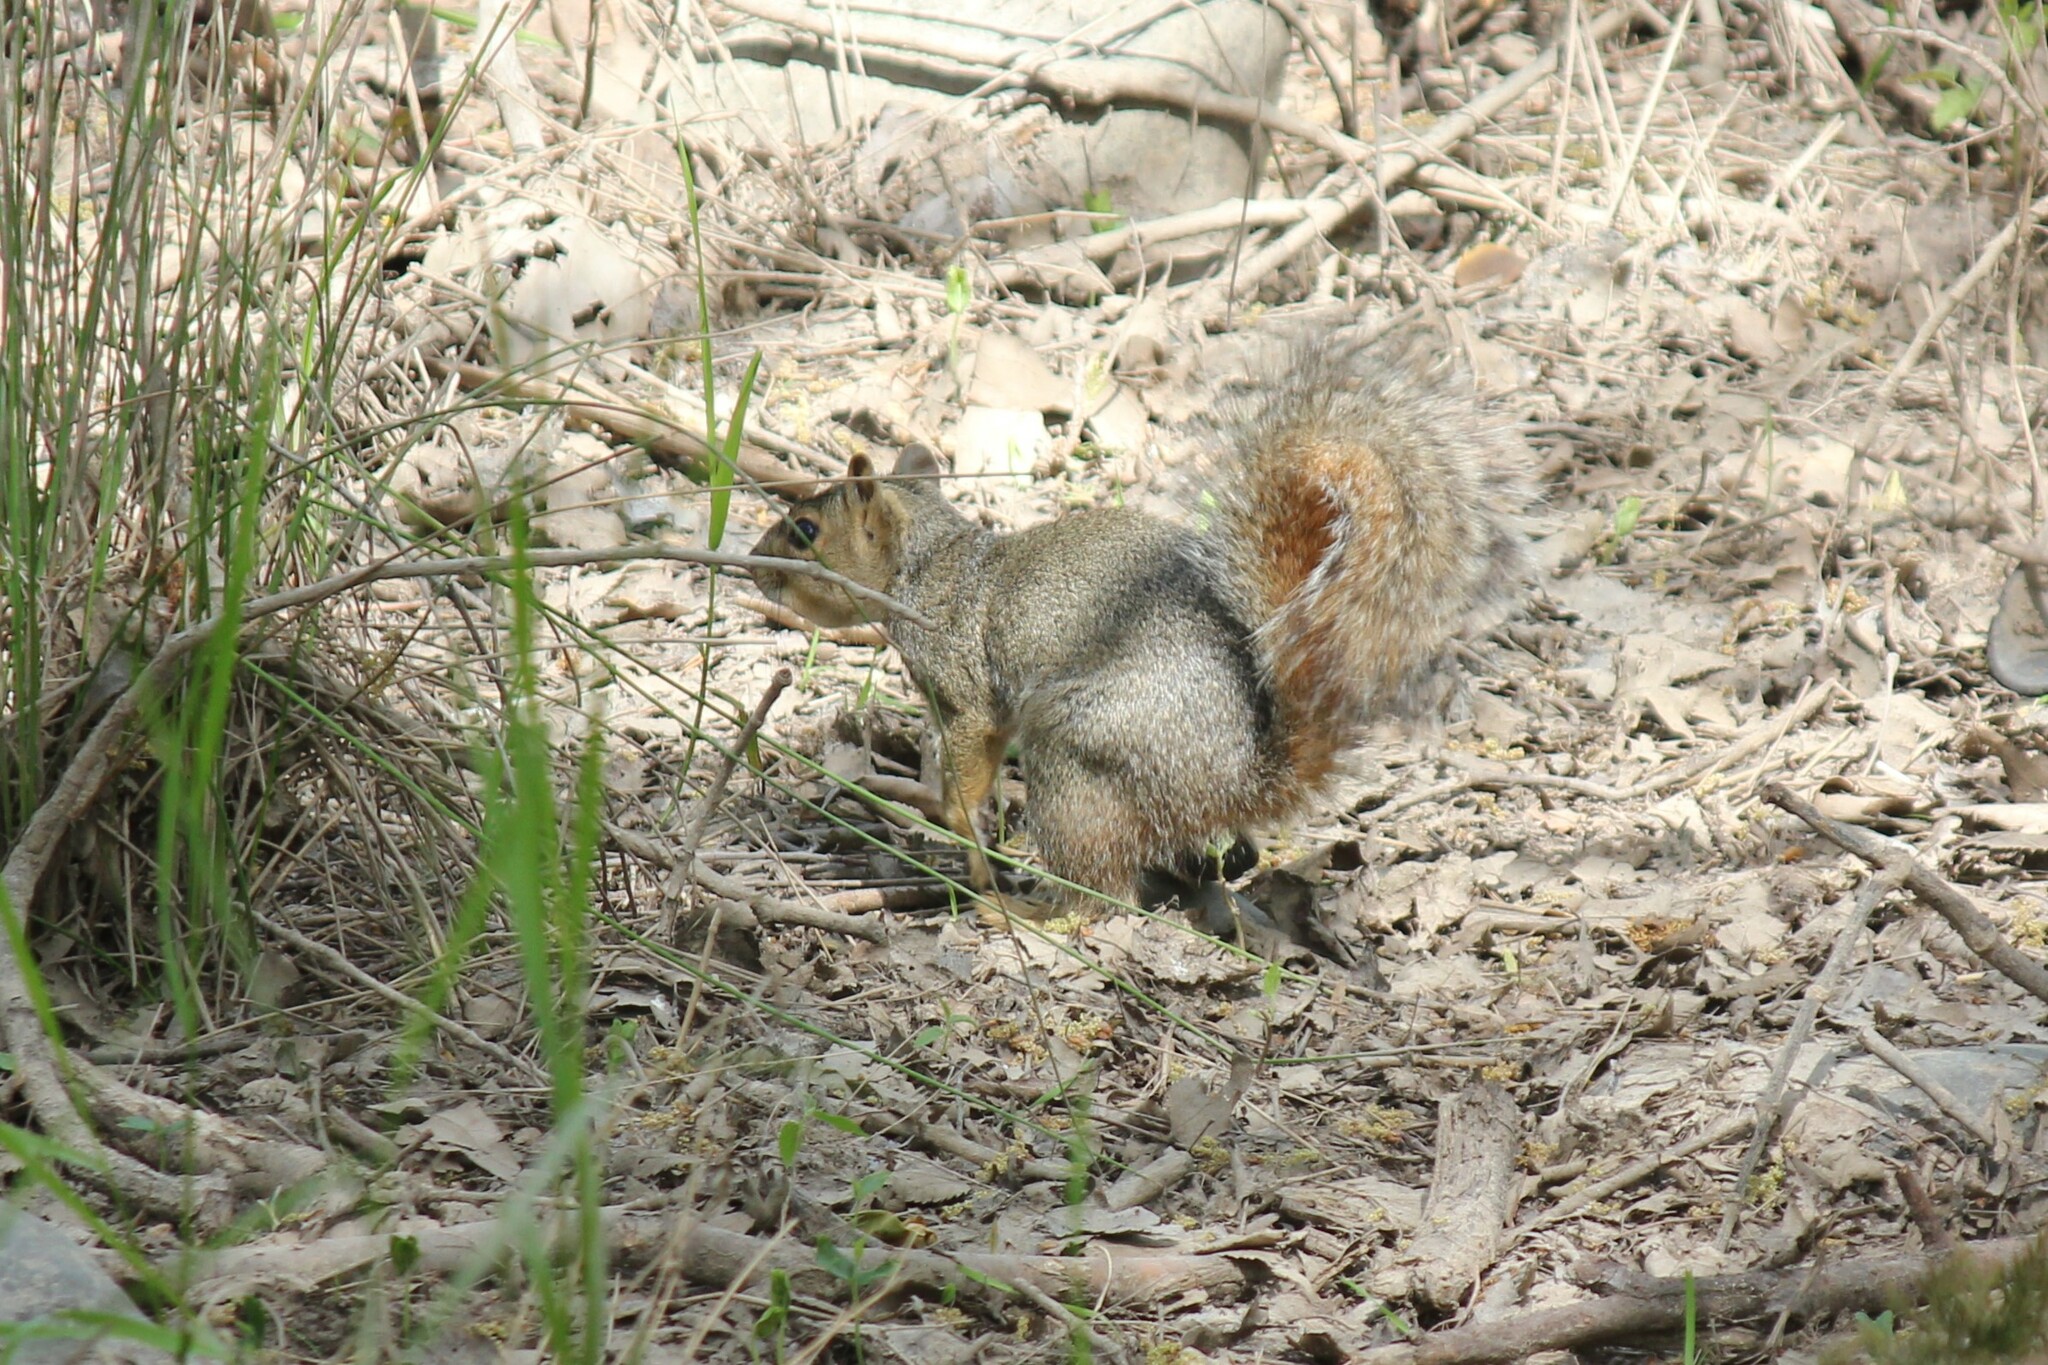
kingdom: Animalia
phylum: Chordata
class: Mammalia
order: Rodentia
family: Sciuridae
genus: Sciurus
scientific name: Sciurus niger
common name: Fox squirrel
